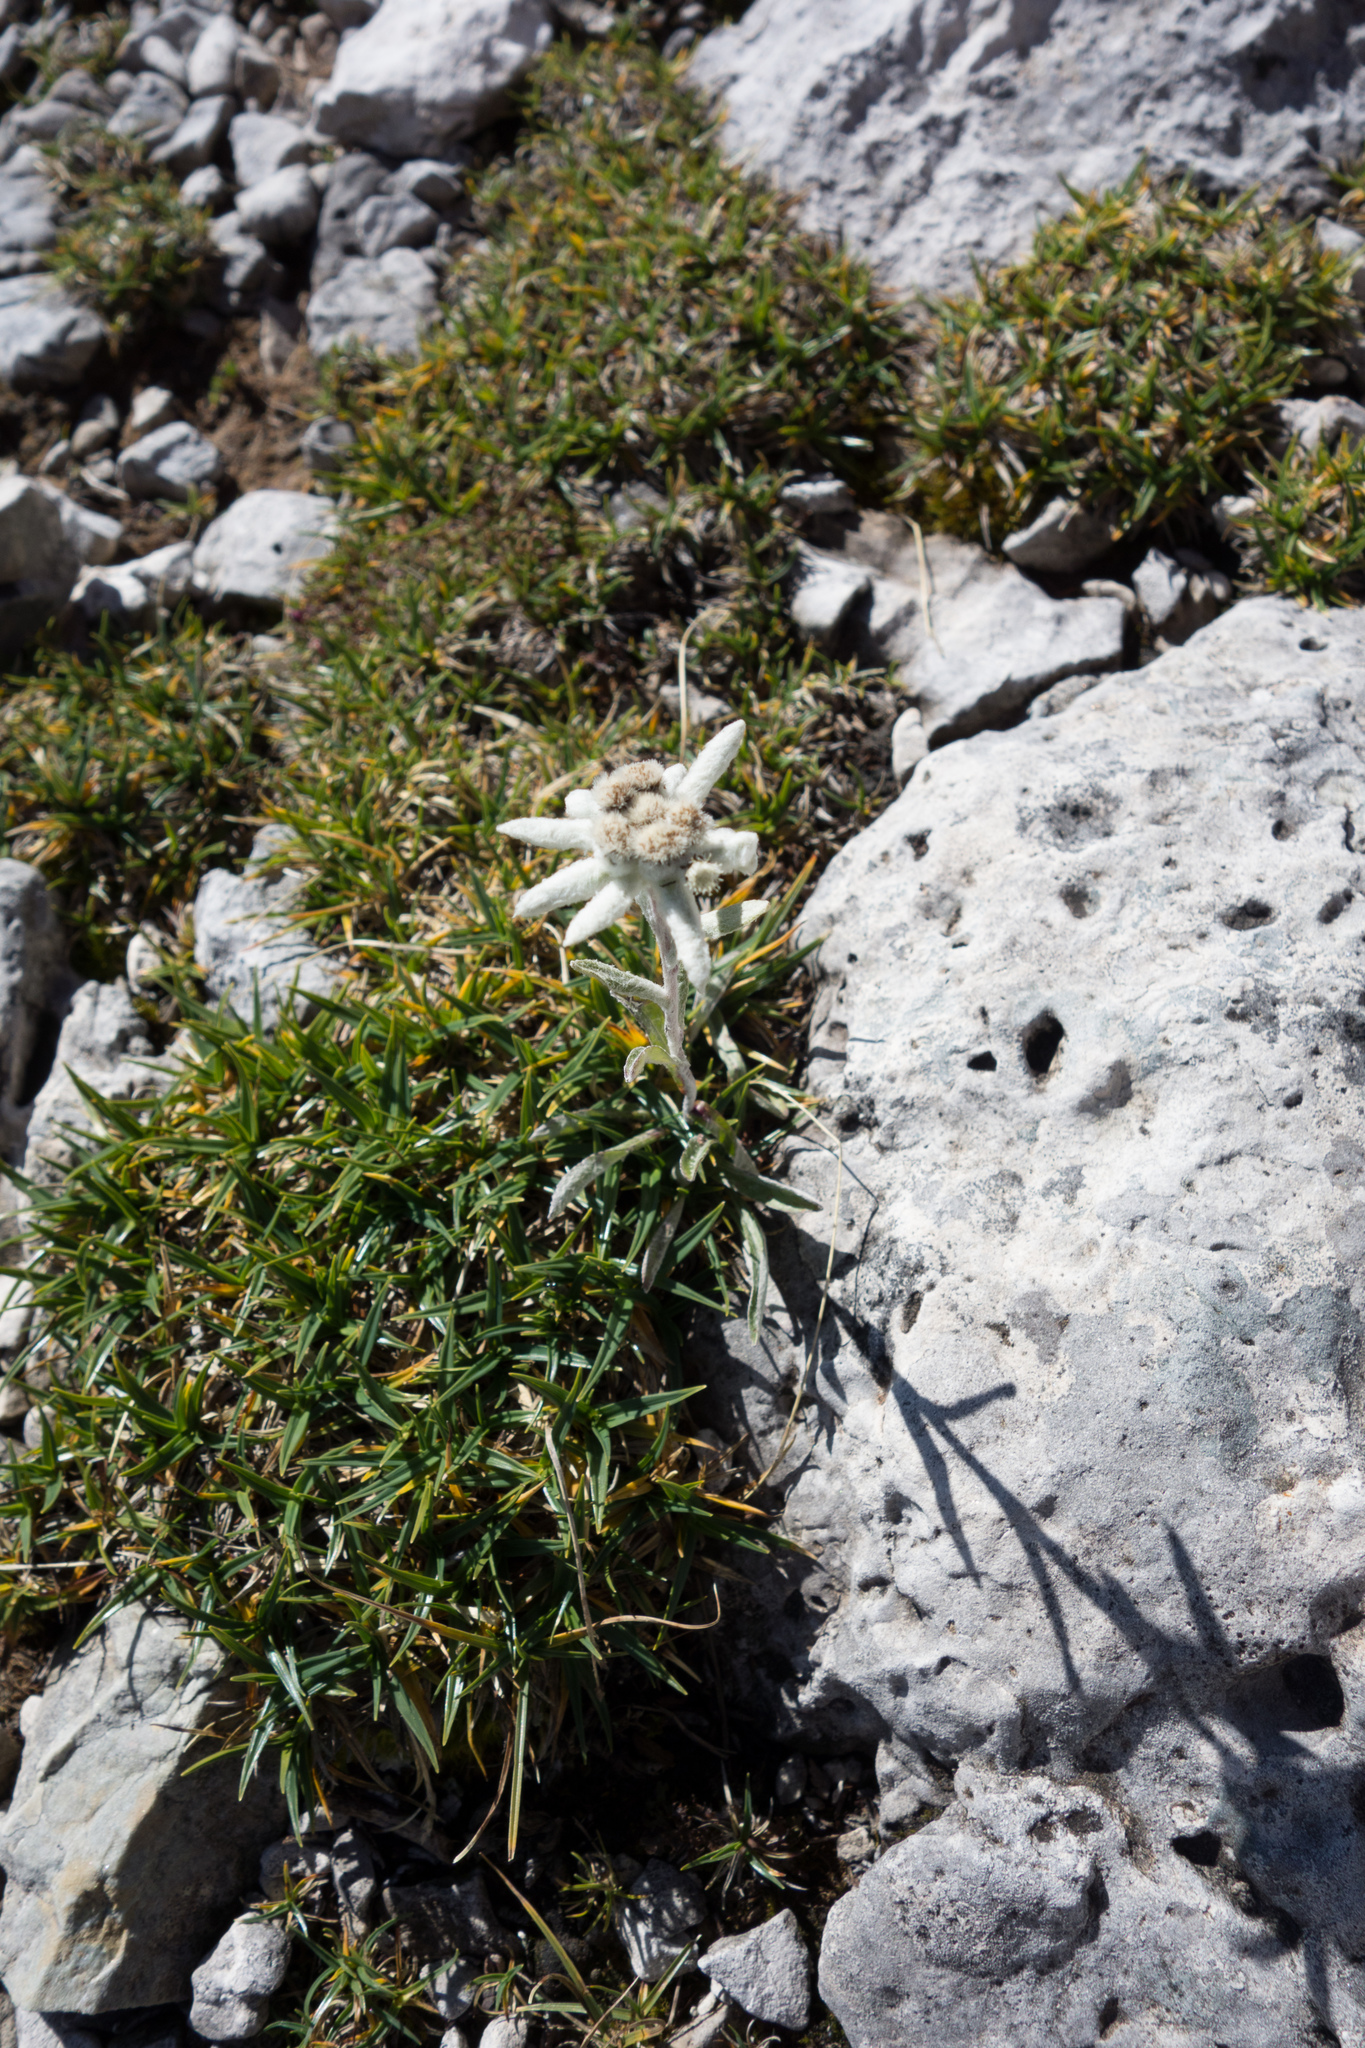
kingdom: Plantae
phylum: Tracheophyta
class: Magnoliopsida
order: Asterales
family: Asteraceae
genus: Leontopodium
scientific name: Leontopodium nivale
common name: Edelweiss
